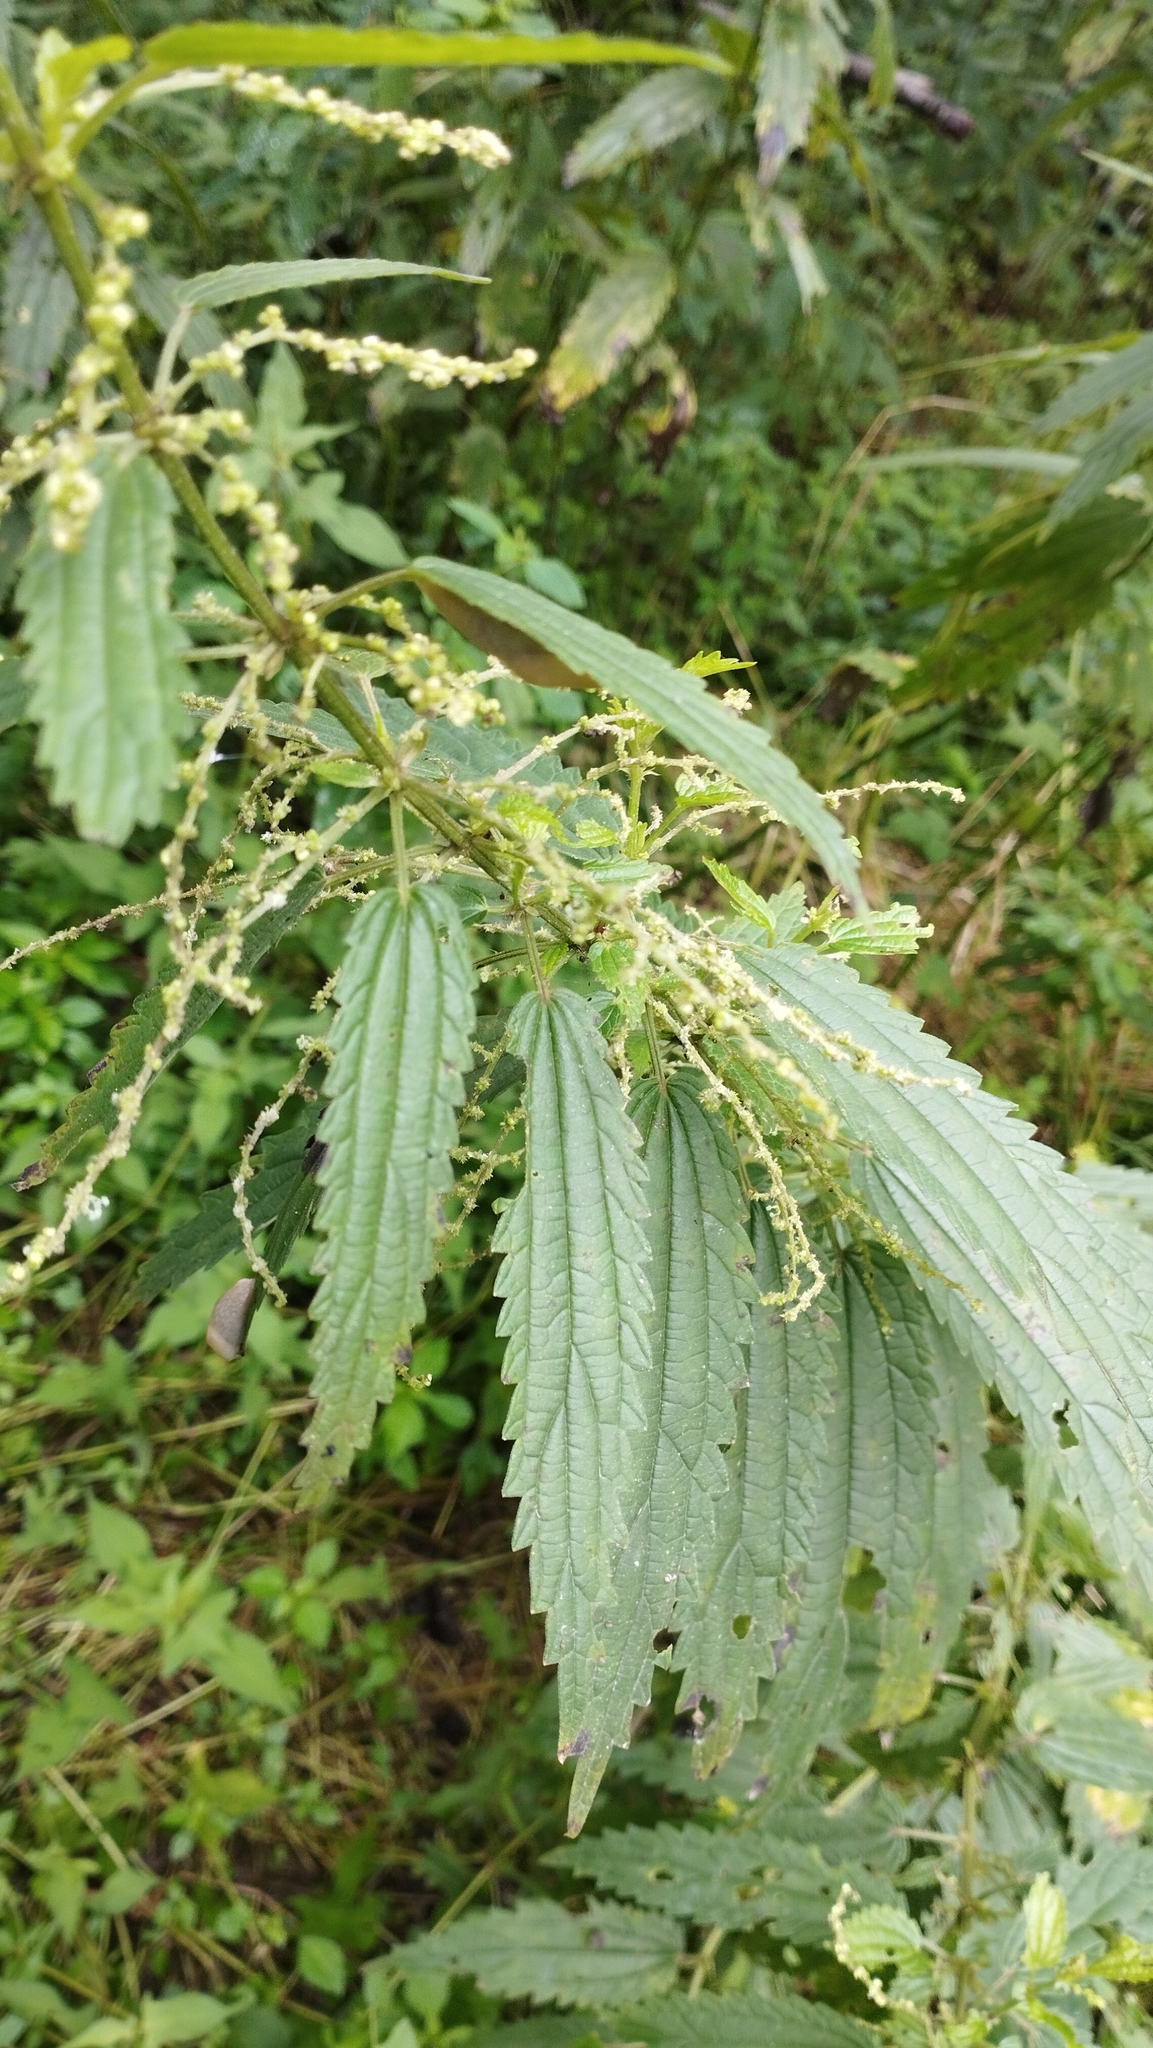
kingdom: Plantae
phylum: Tracheophyta
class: Magnoliopsida
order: Rosales
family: Urticaceae
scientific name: Urticaceae
